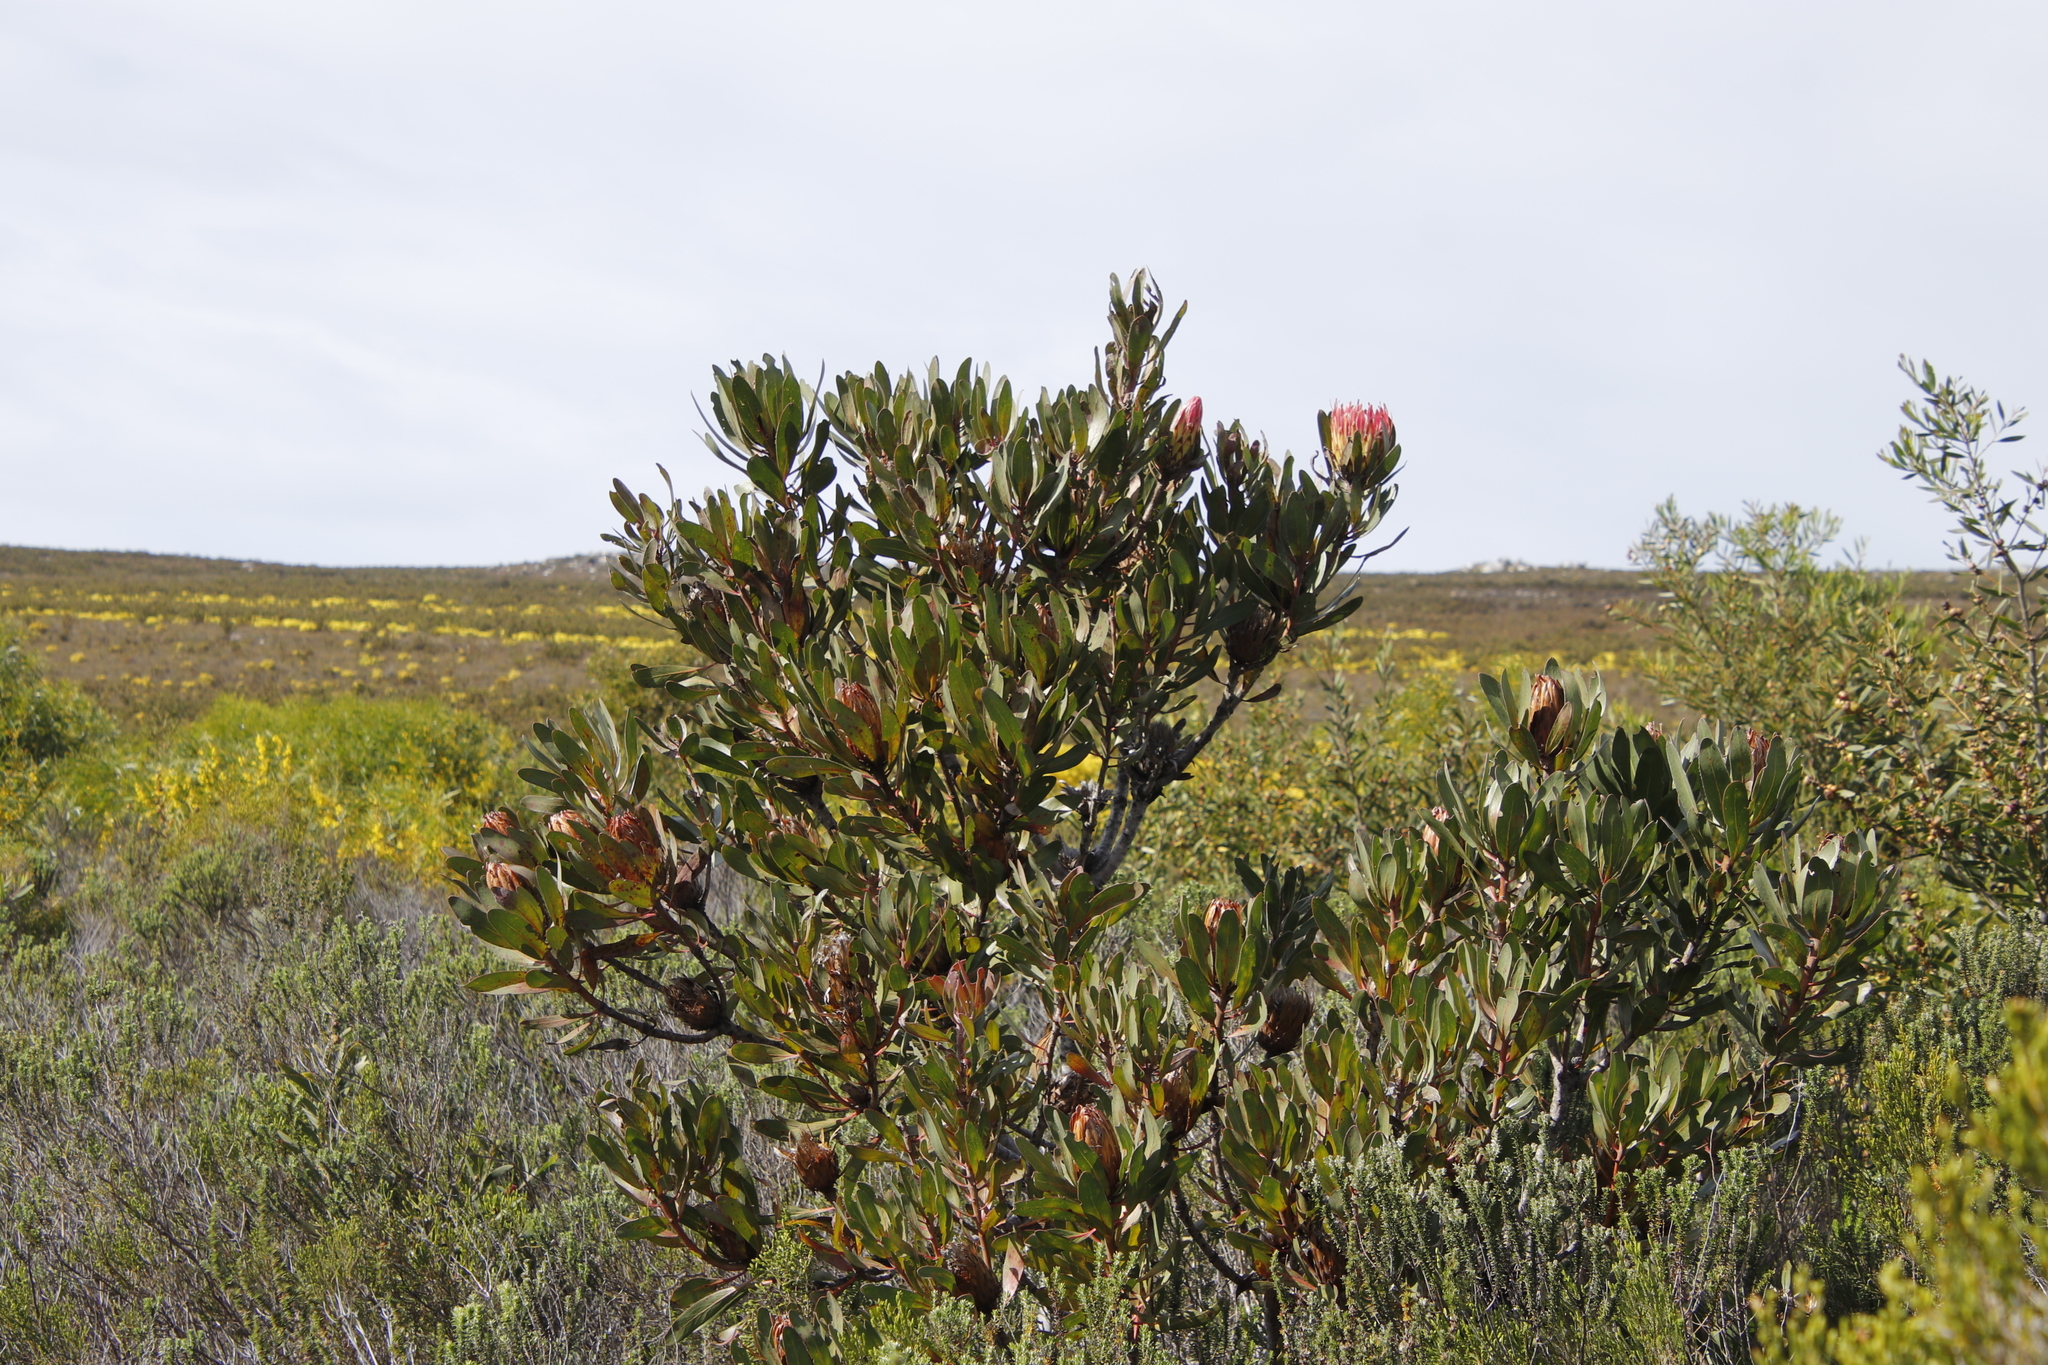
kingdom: Plantae
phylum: Tracheophyta
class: Magnoliopsida
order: Proteales
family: Proteaceae
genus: Protea
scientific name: Protea obtusifolia
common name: Bredasdorp sugarbush
